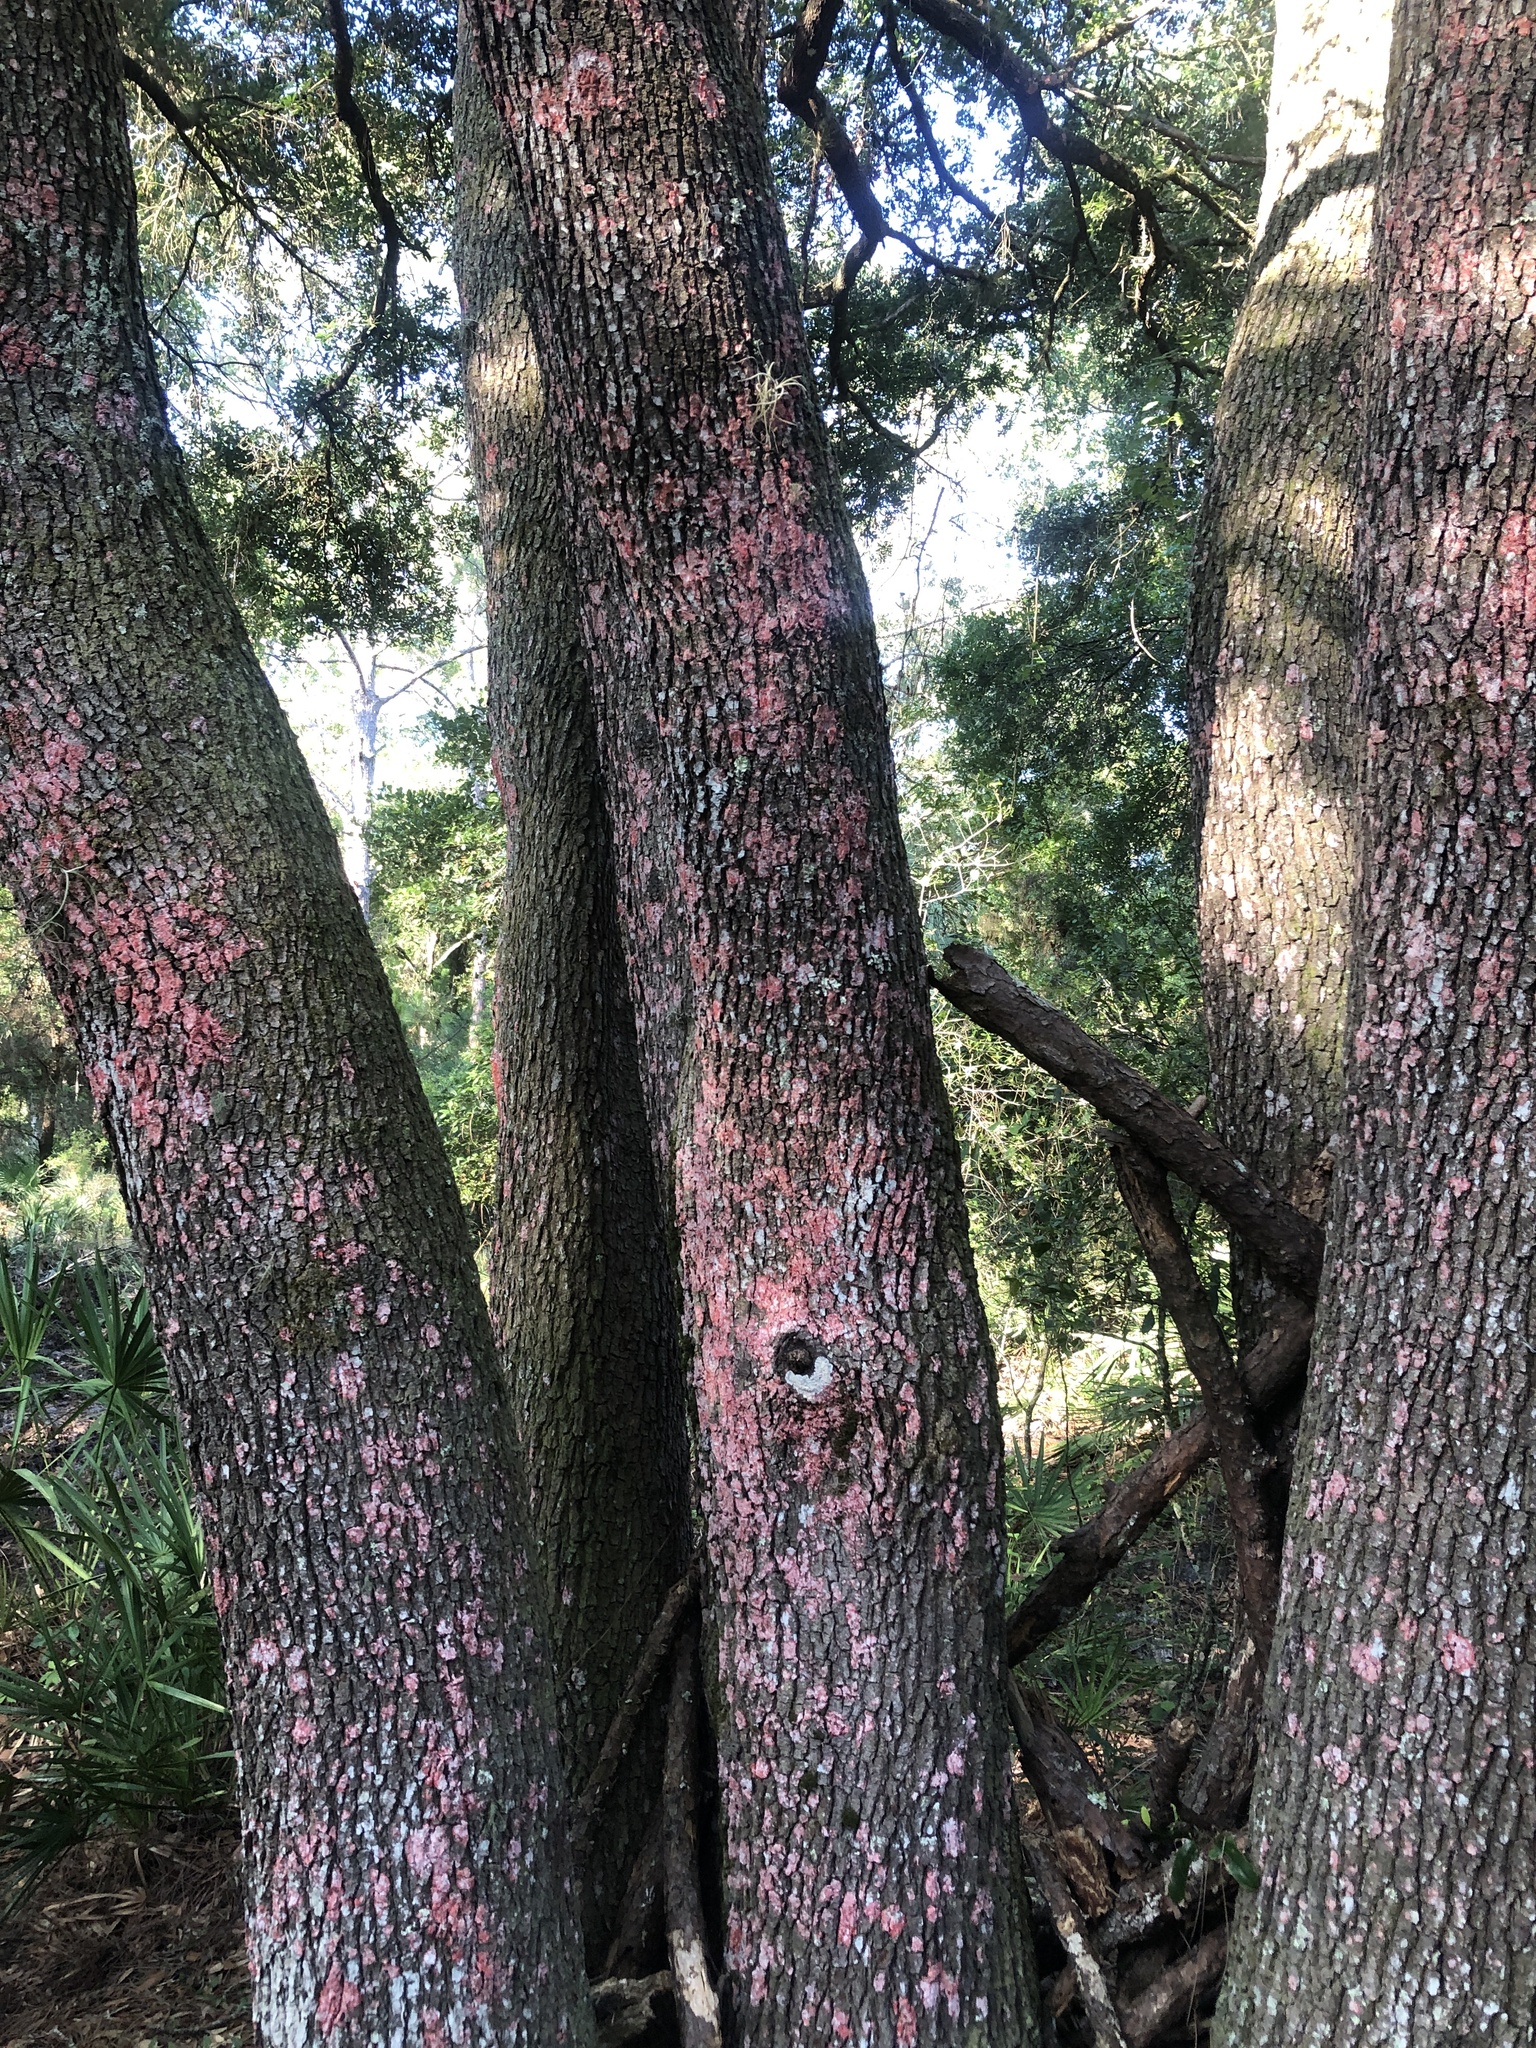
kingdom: Fungi
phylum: Ascomycota
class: Arthoniomycetes
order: Arthoniales
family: Arthoniaceae
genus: Herpothallon
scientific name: Herpothallon rubrocinctum
